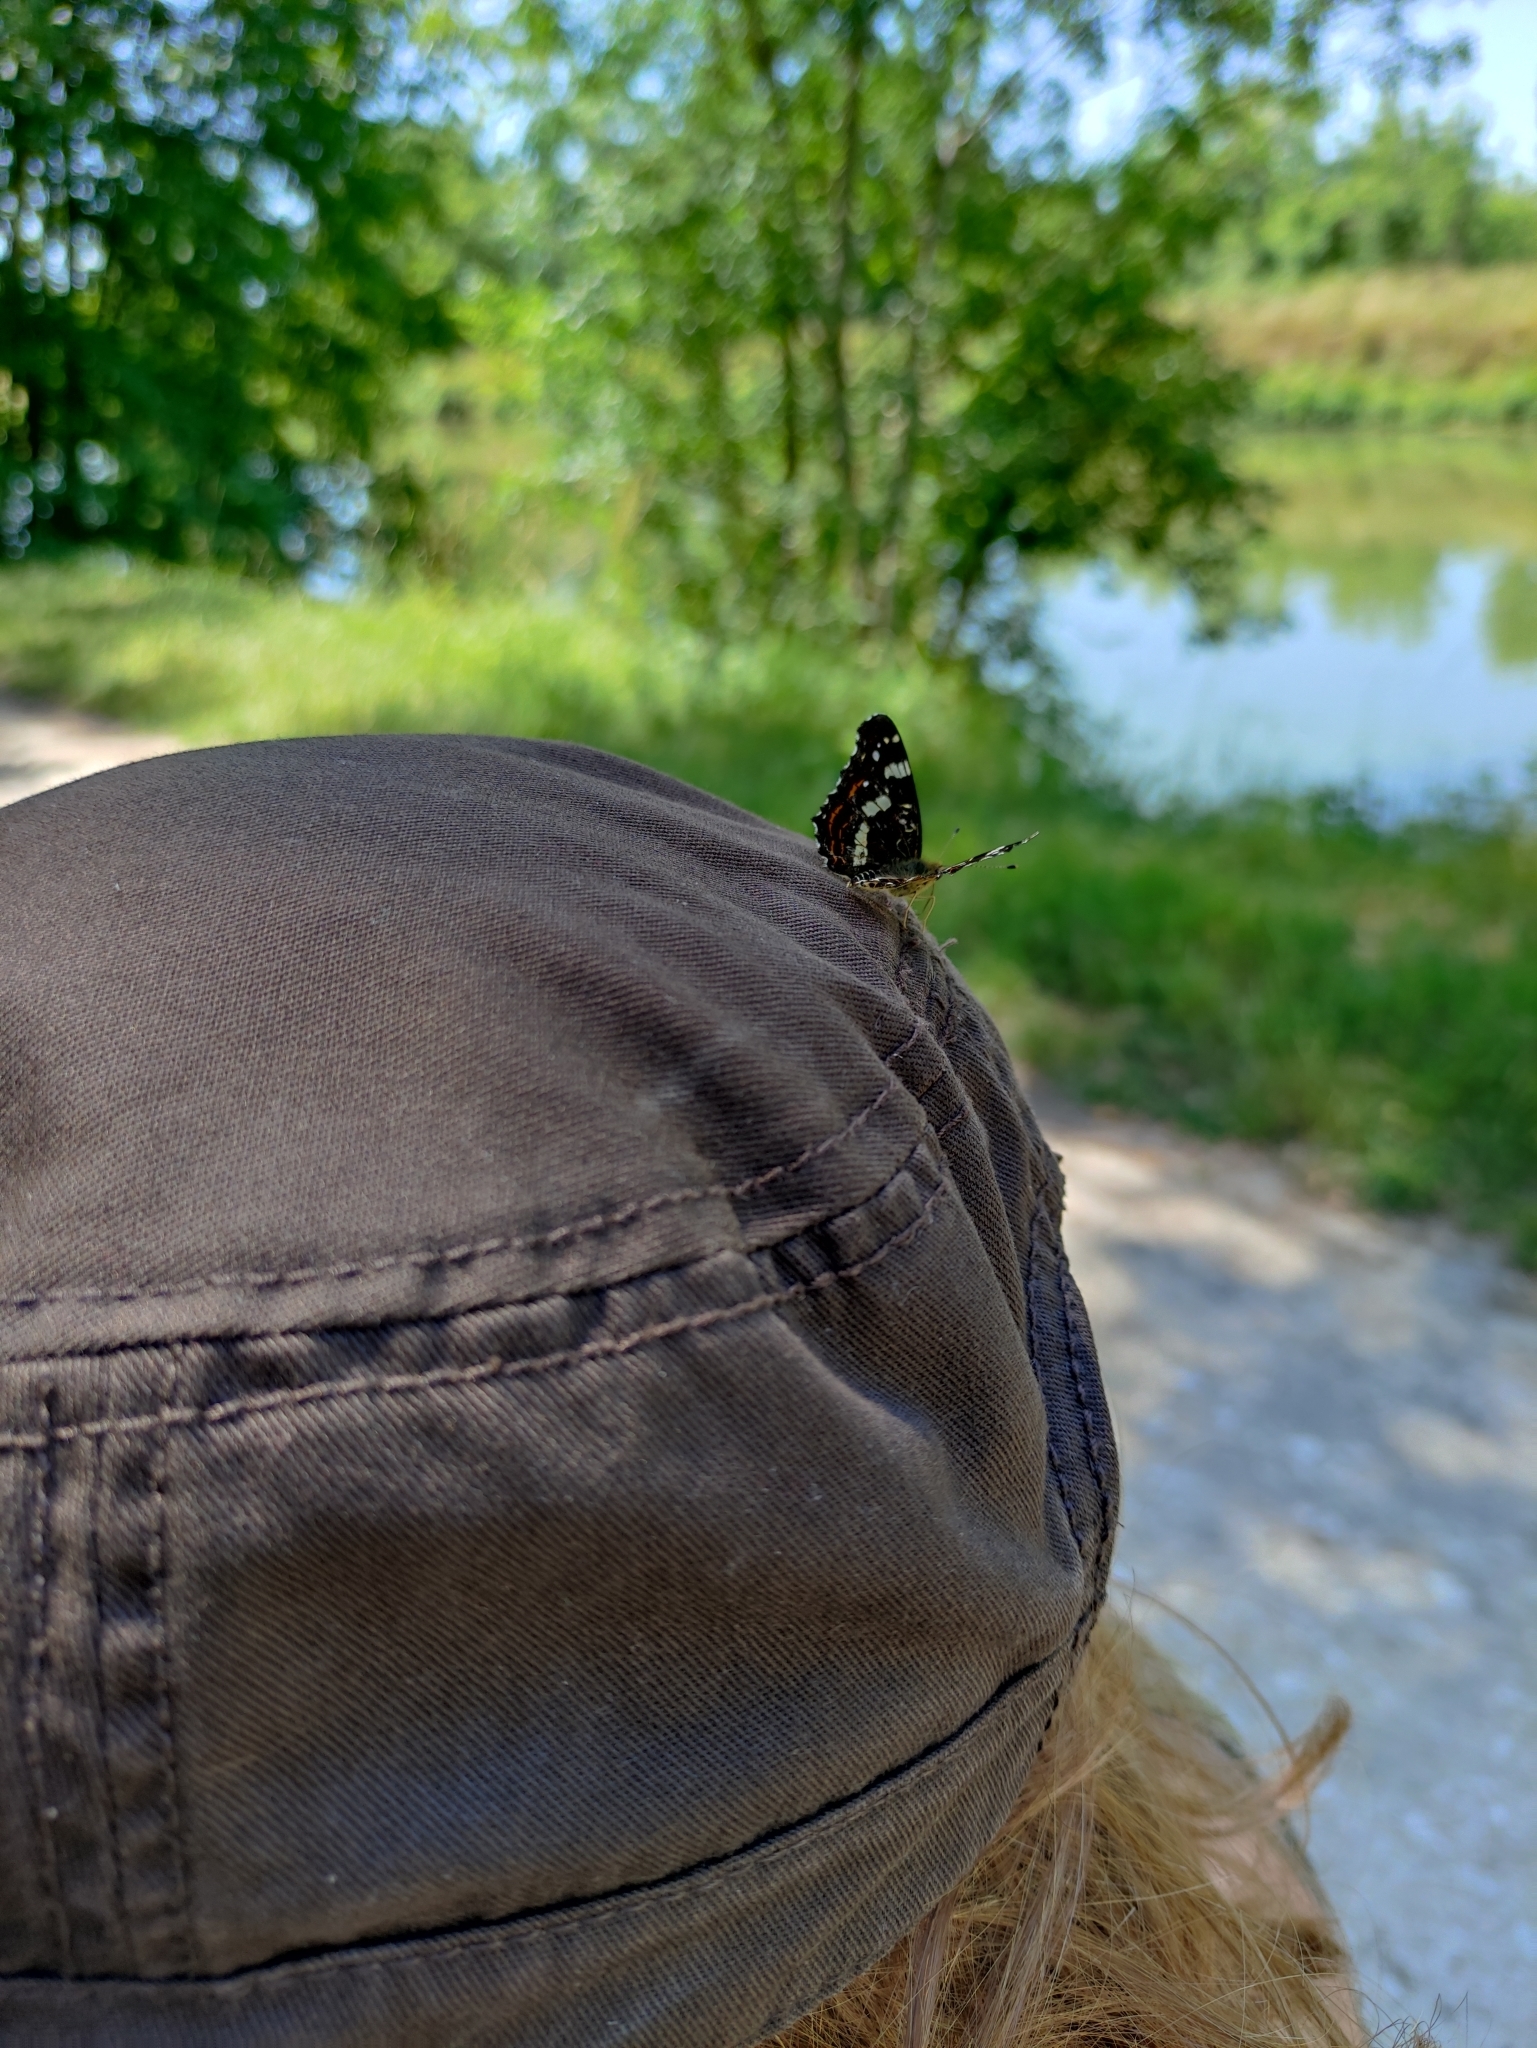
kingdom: Animalia
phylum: Arthropoda
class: Insecta
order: Lepidoptera
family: Nymphalidae
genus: Araschnia
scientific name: Araschnia levana
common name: Map butterfly
